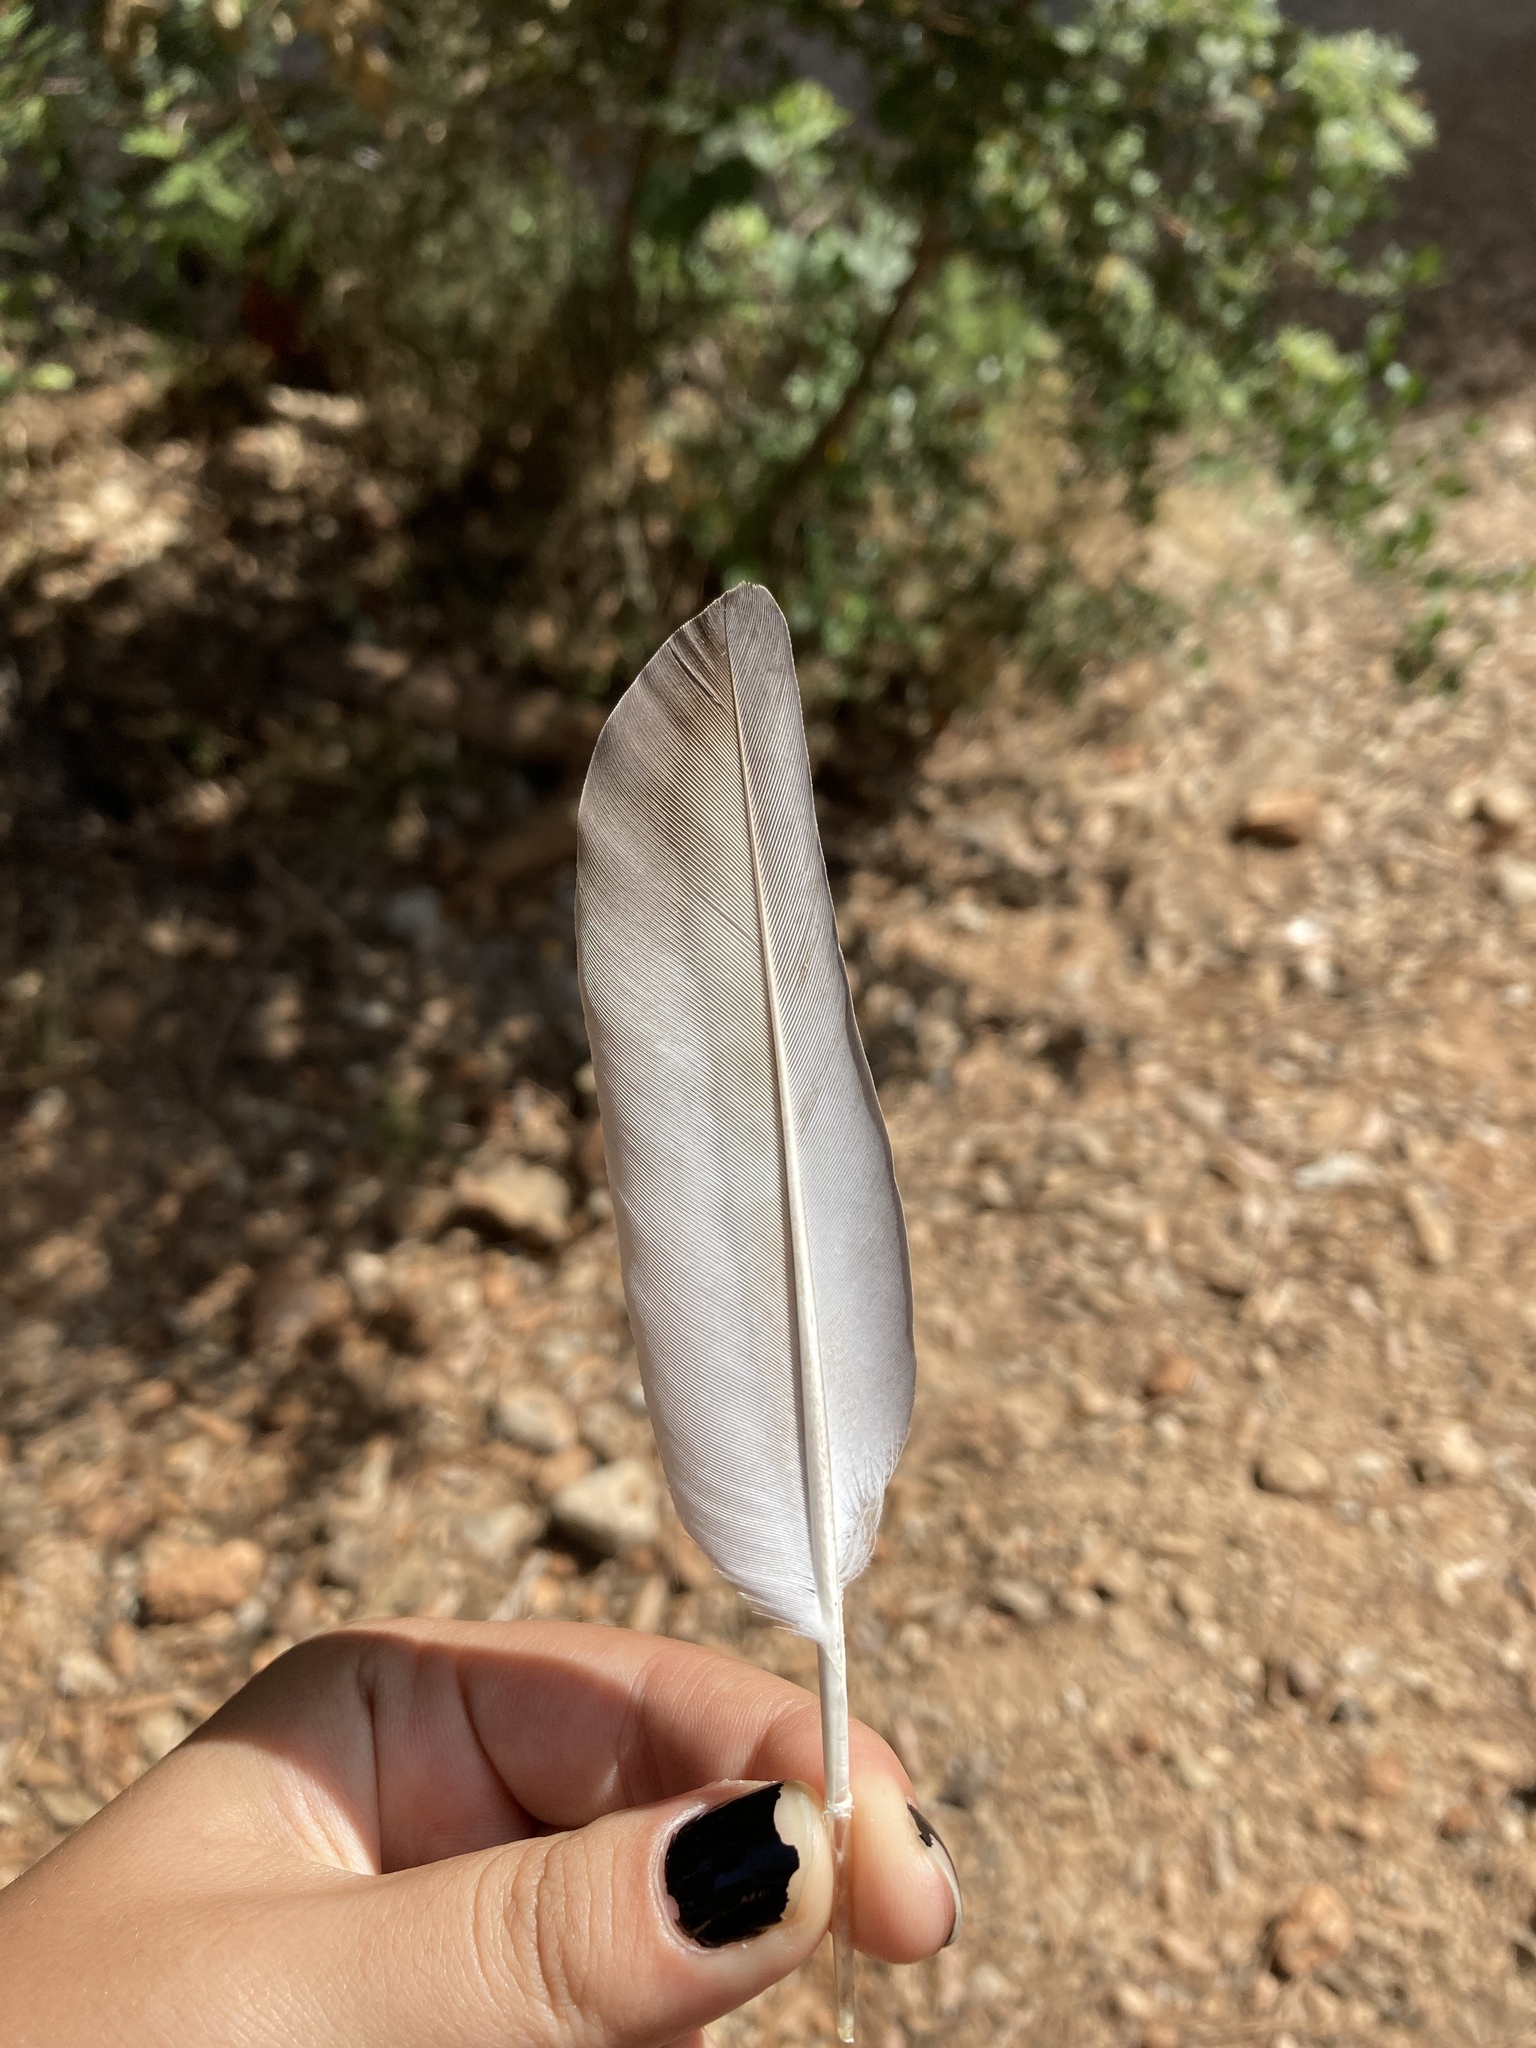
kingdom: Animalia
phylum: Chordata
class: Aves
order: Columbiformes
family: Columbidae
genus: Columba
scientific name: Columba livia
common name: Rock pigeon
